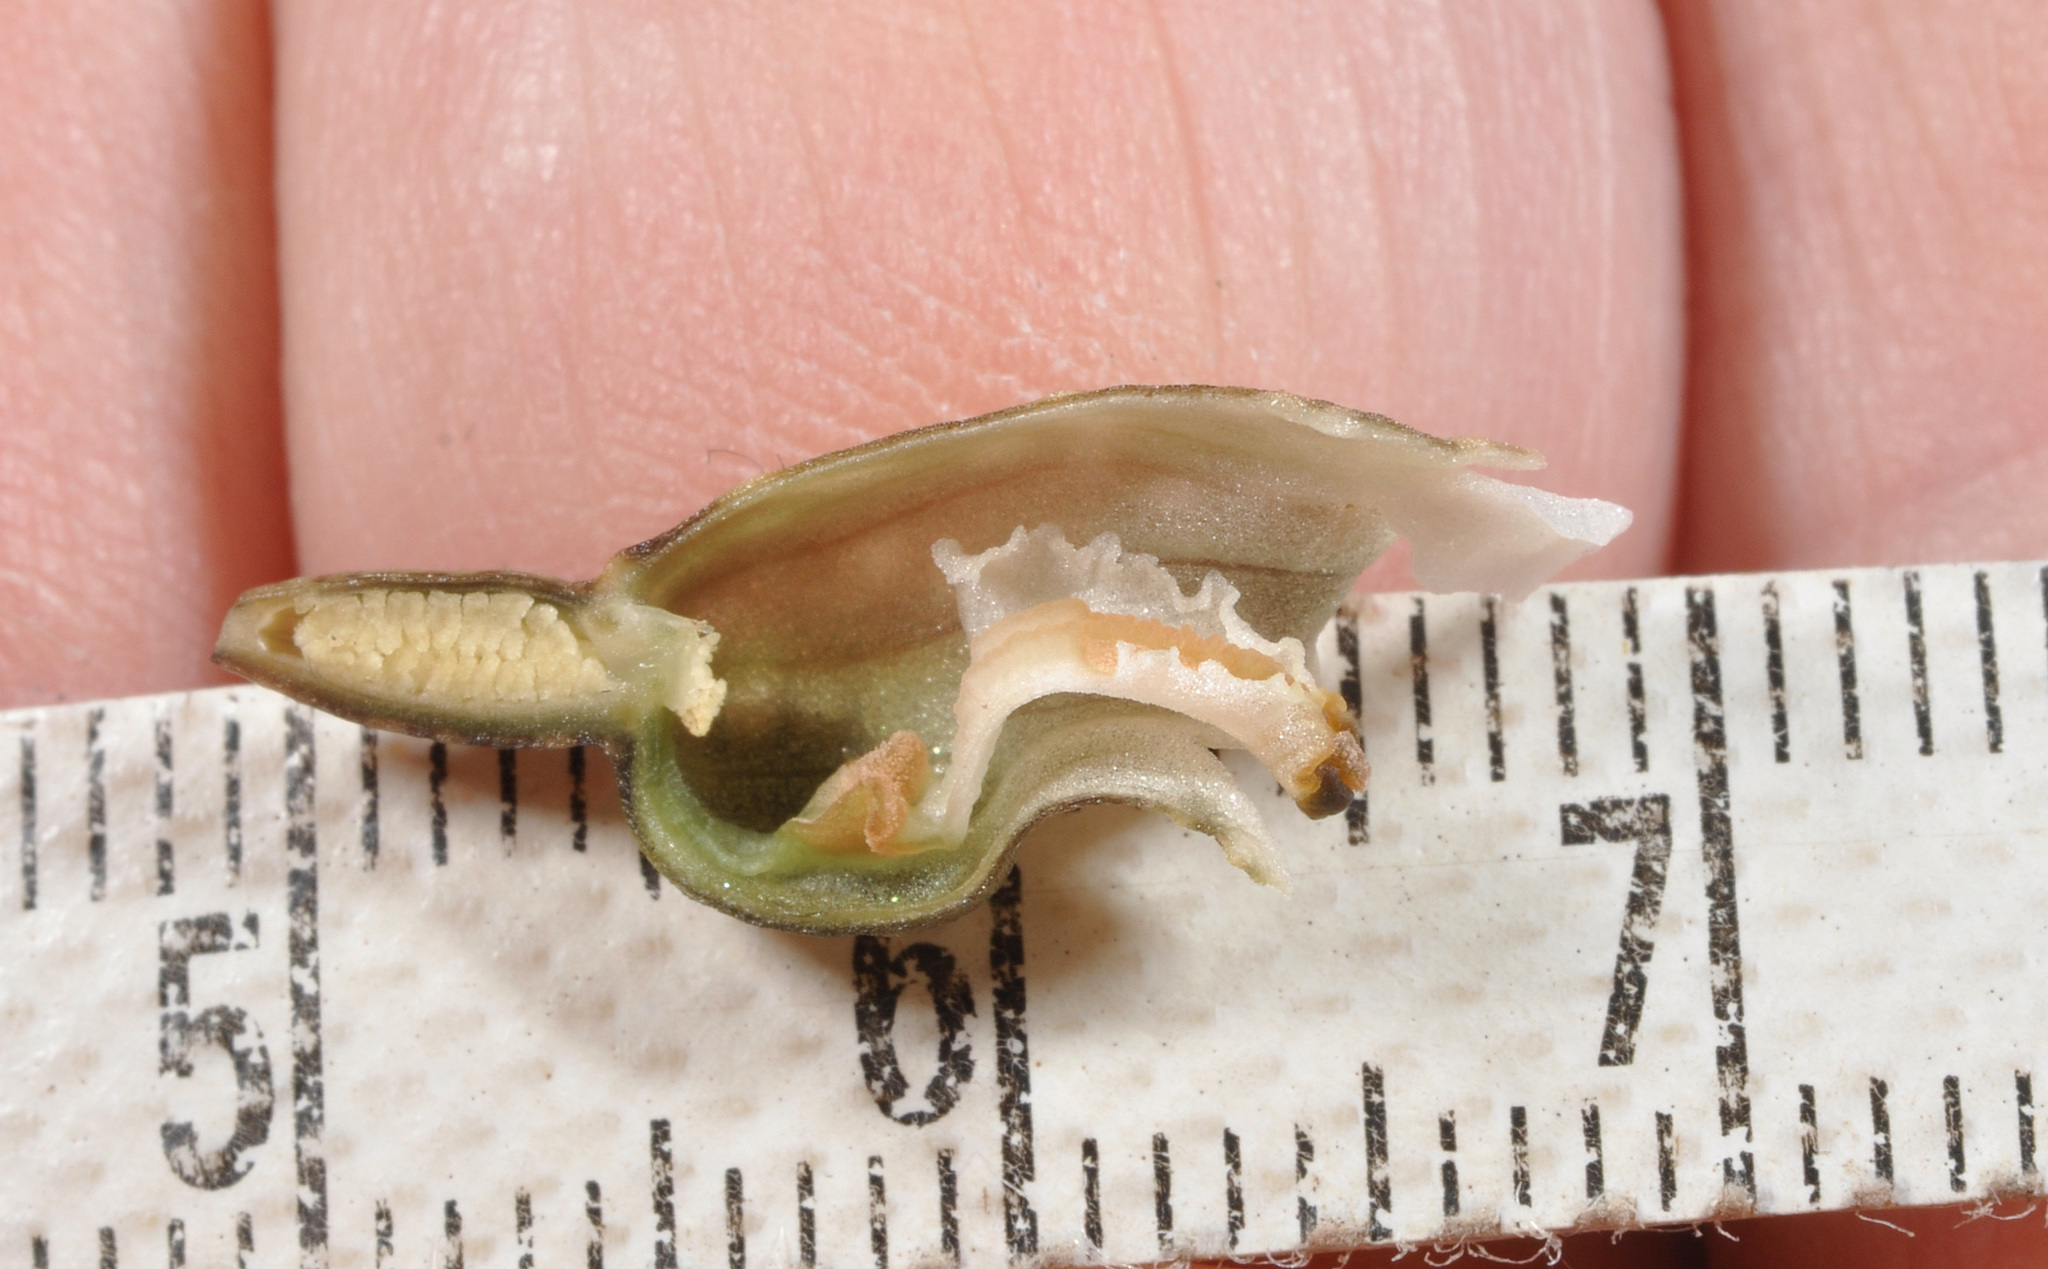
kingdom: Plantae
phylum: Tracheophyta
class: Liliopsida
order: Asparagales
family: Orchidaceae
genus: Gastrodia
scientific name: Gastrodia cunninghamii
